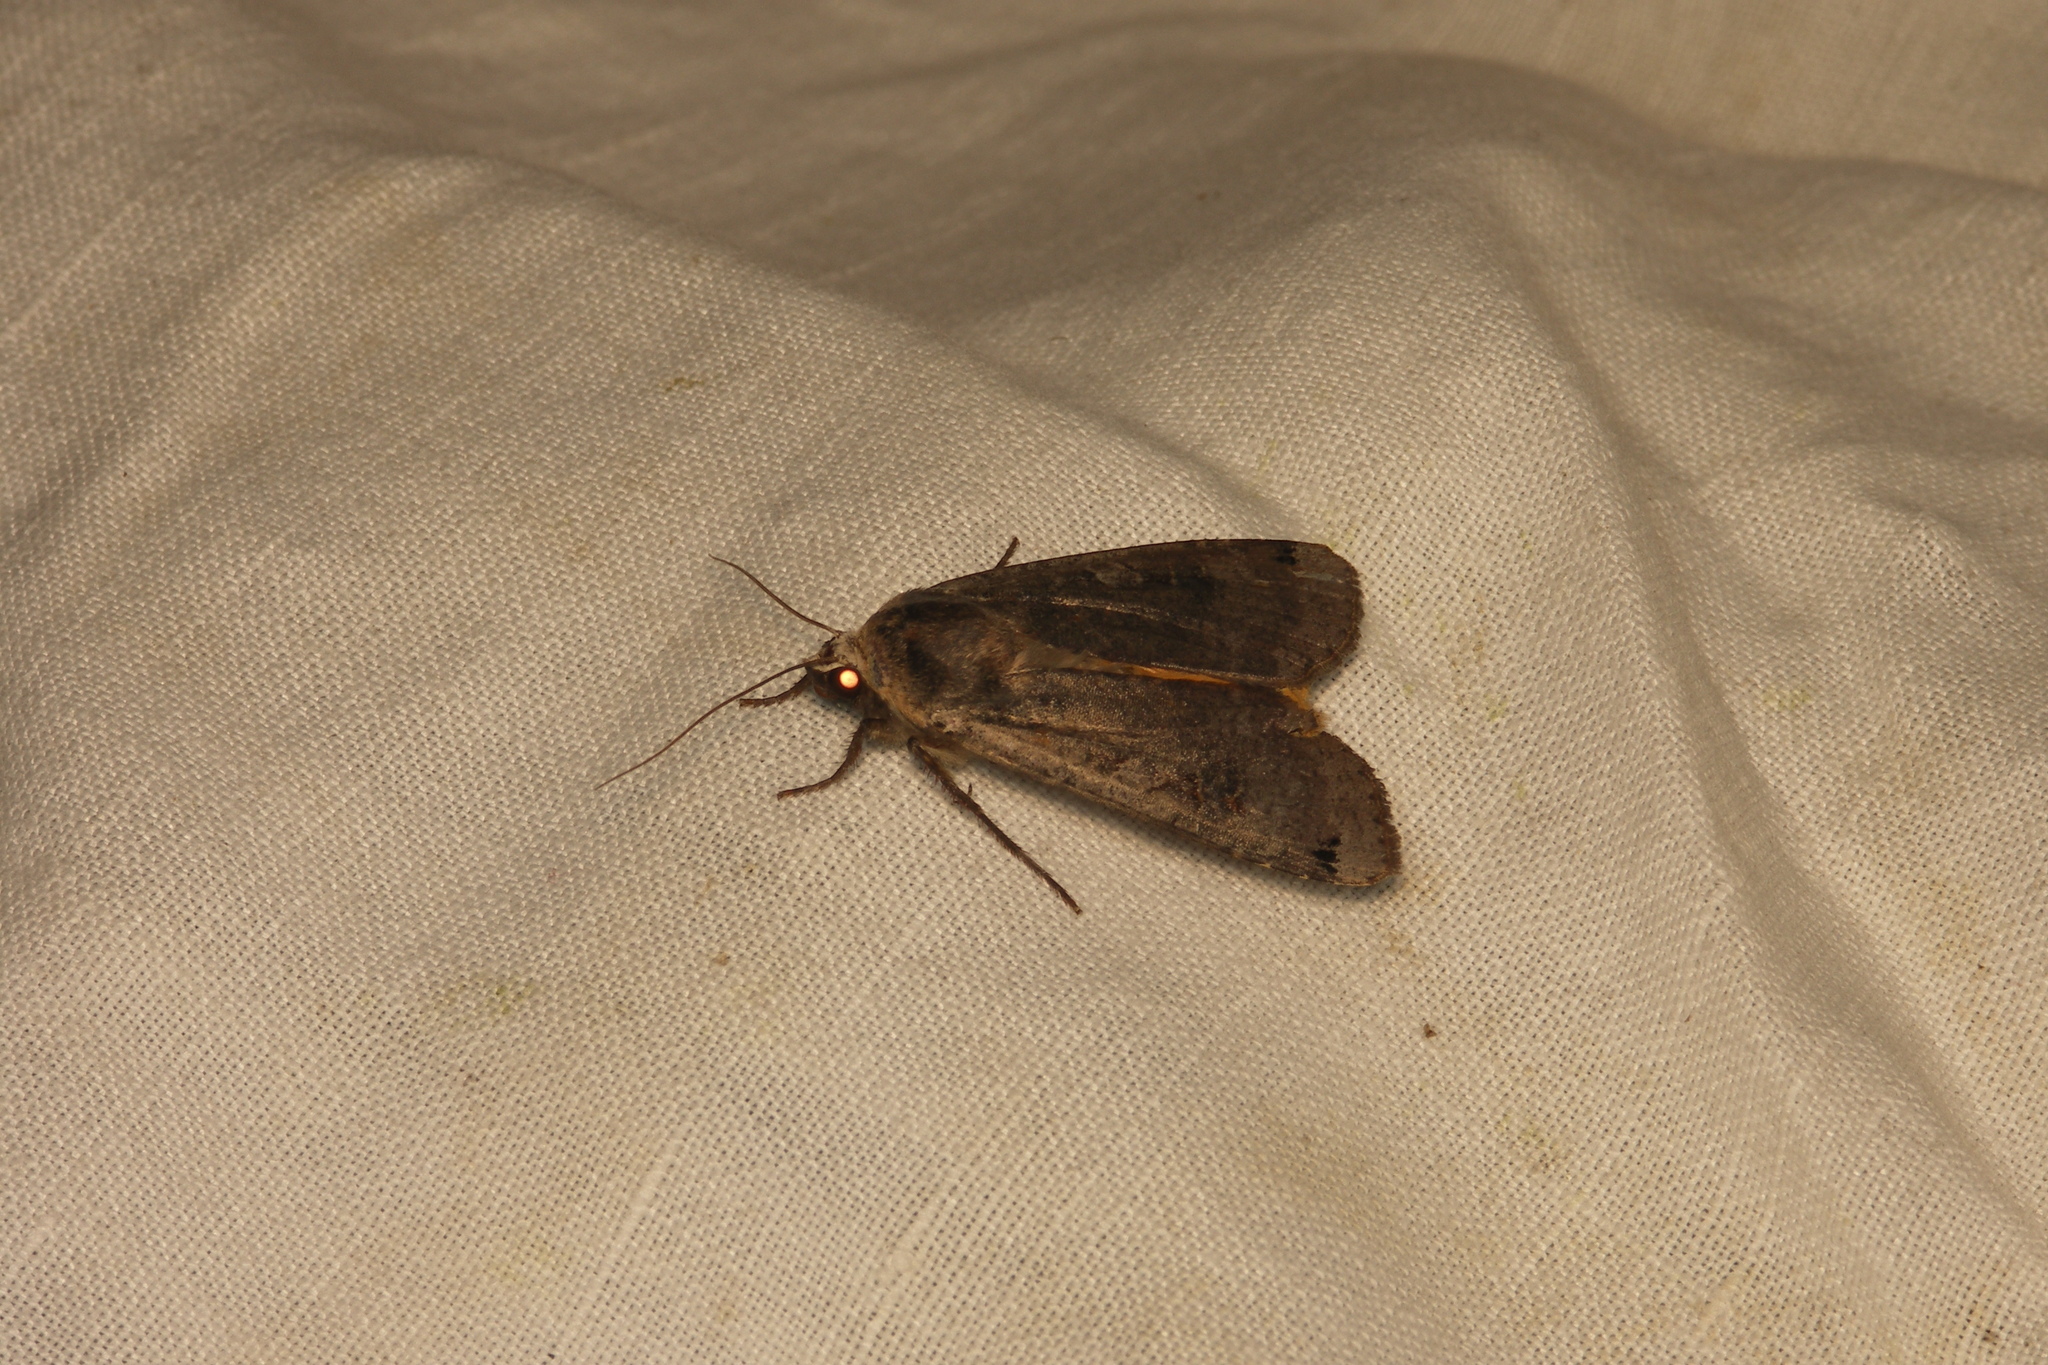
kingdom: Animalia
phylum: Arthropoda
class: Insecta
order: Lepidoptera
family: Noctuidae
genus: Noctua
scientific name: Noctua pronuba
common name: Large yellow underwing
